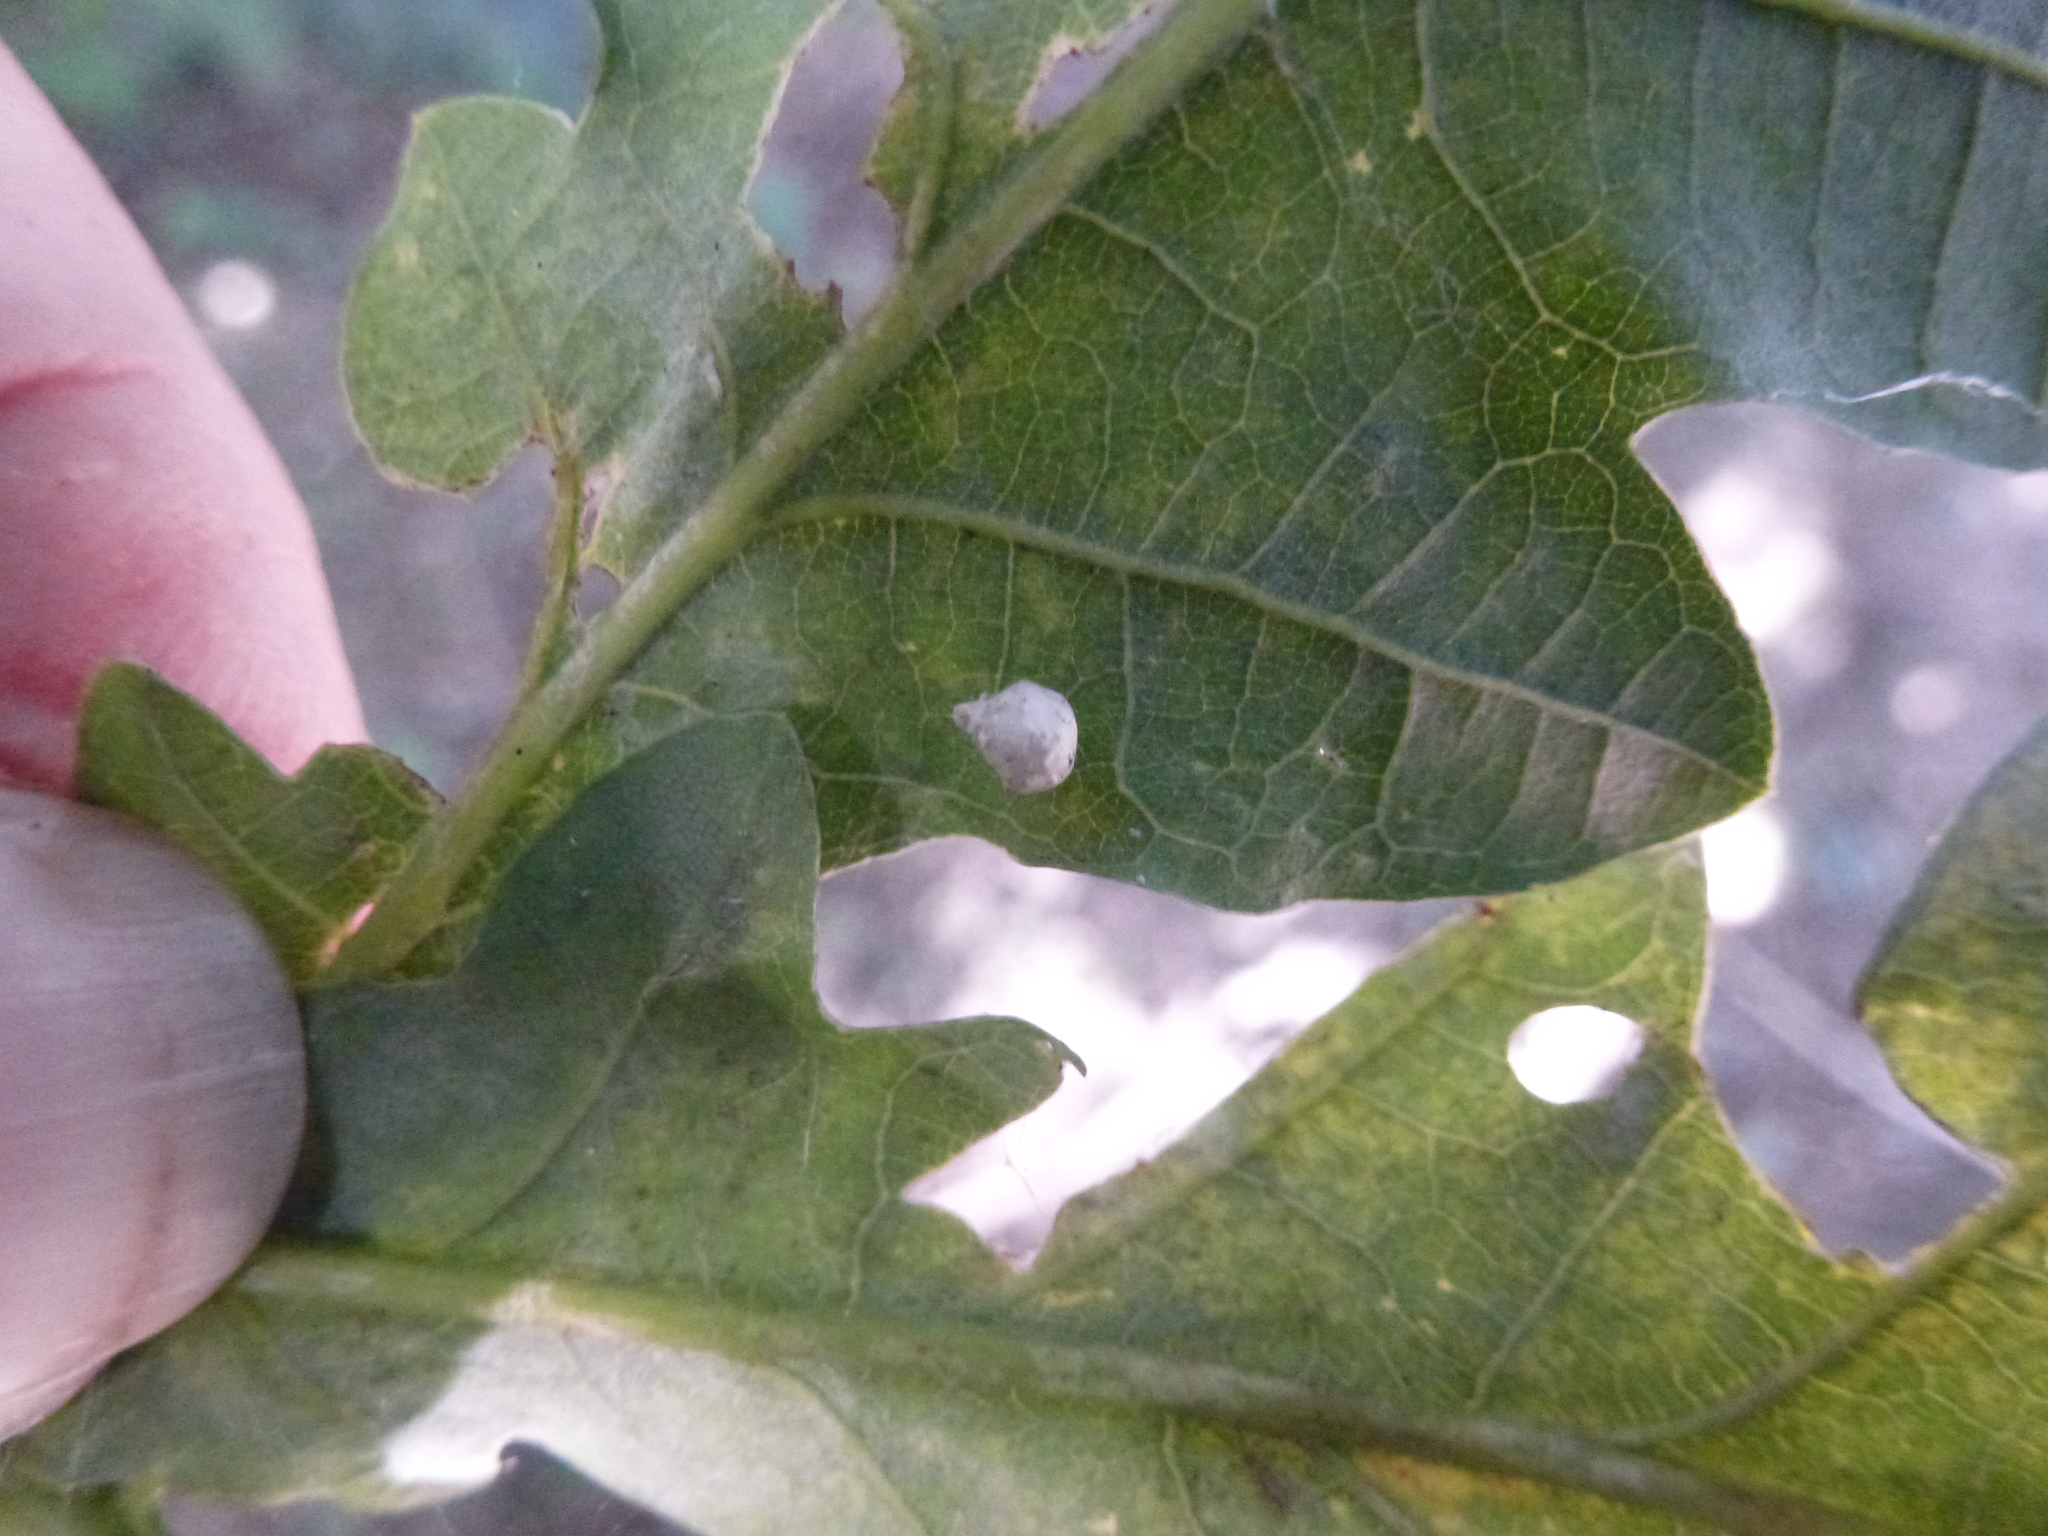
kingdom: Animalia
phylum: Arthropoda
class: Arachnida
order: Araneae
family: Theridiidae
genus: Paidiscura
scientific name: Paidiscura pallens
